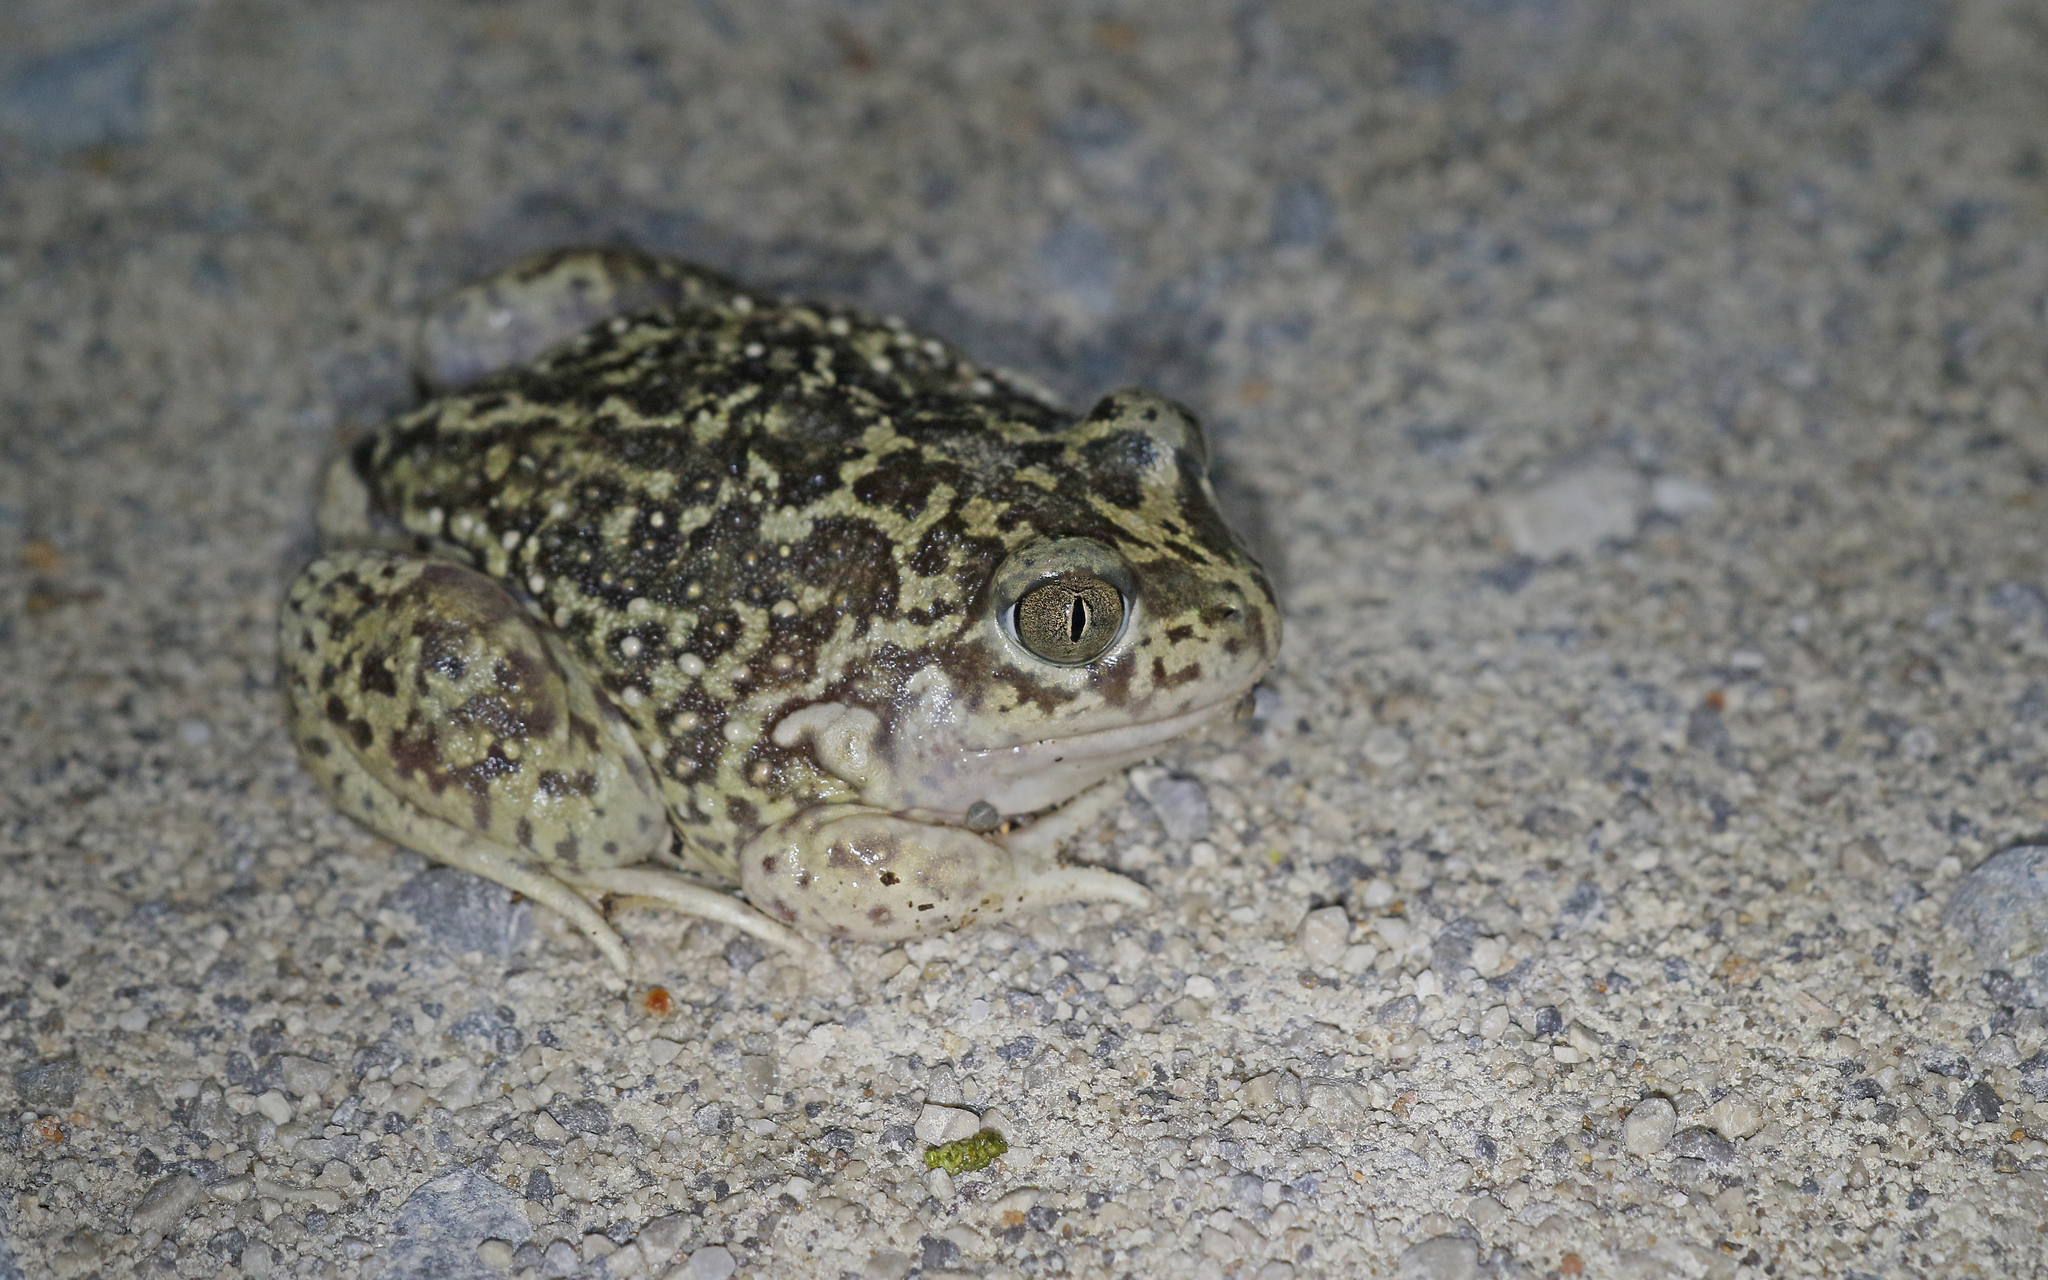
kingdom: Animalia
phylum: Chordata
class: Amphibia
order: Anura
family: Pelobatidae
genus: Pelobates
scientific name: Pelobates cultripes
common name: Western spadefoot
